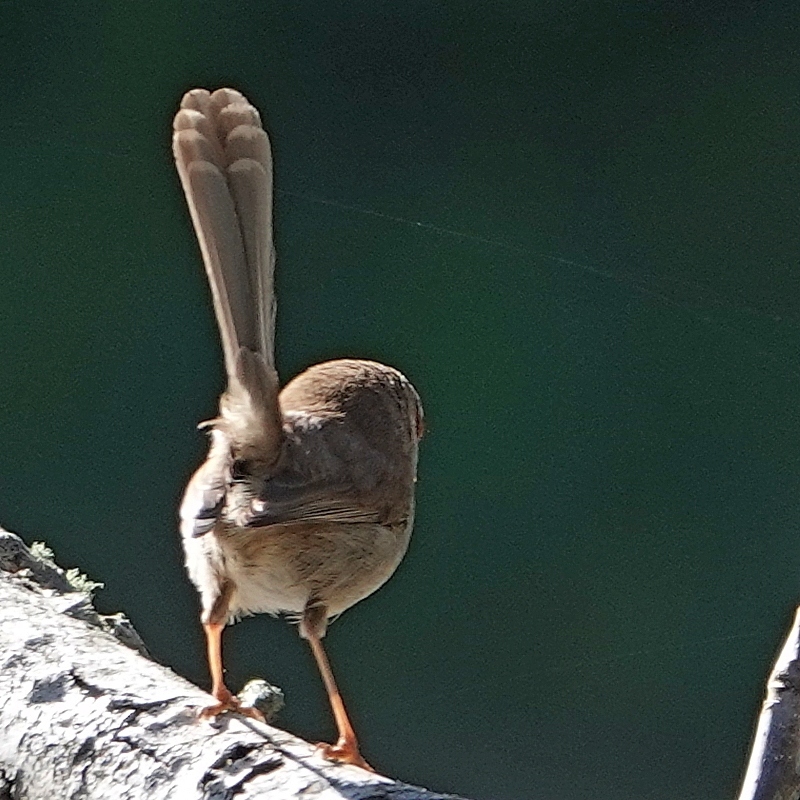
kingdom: Animalia
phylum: Chordata
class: Aves
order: Passeriformes
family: Maluridae
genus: Malurus
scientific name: Malurus cyaneus
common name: Superb fairywren
